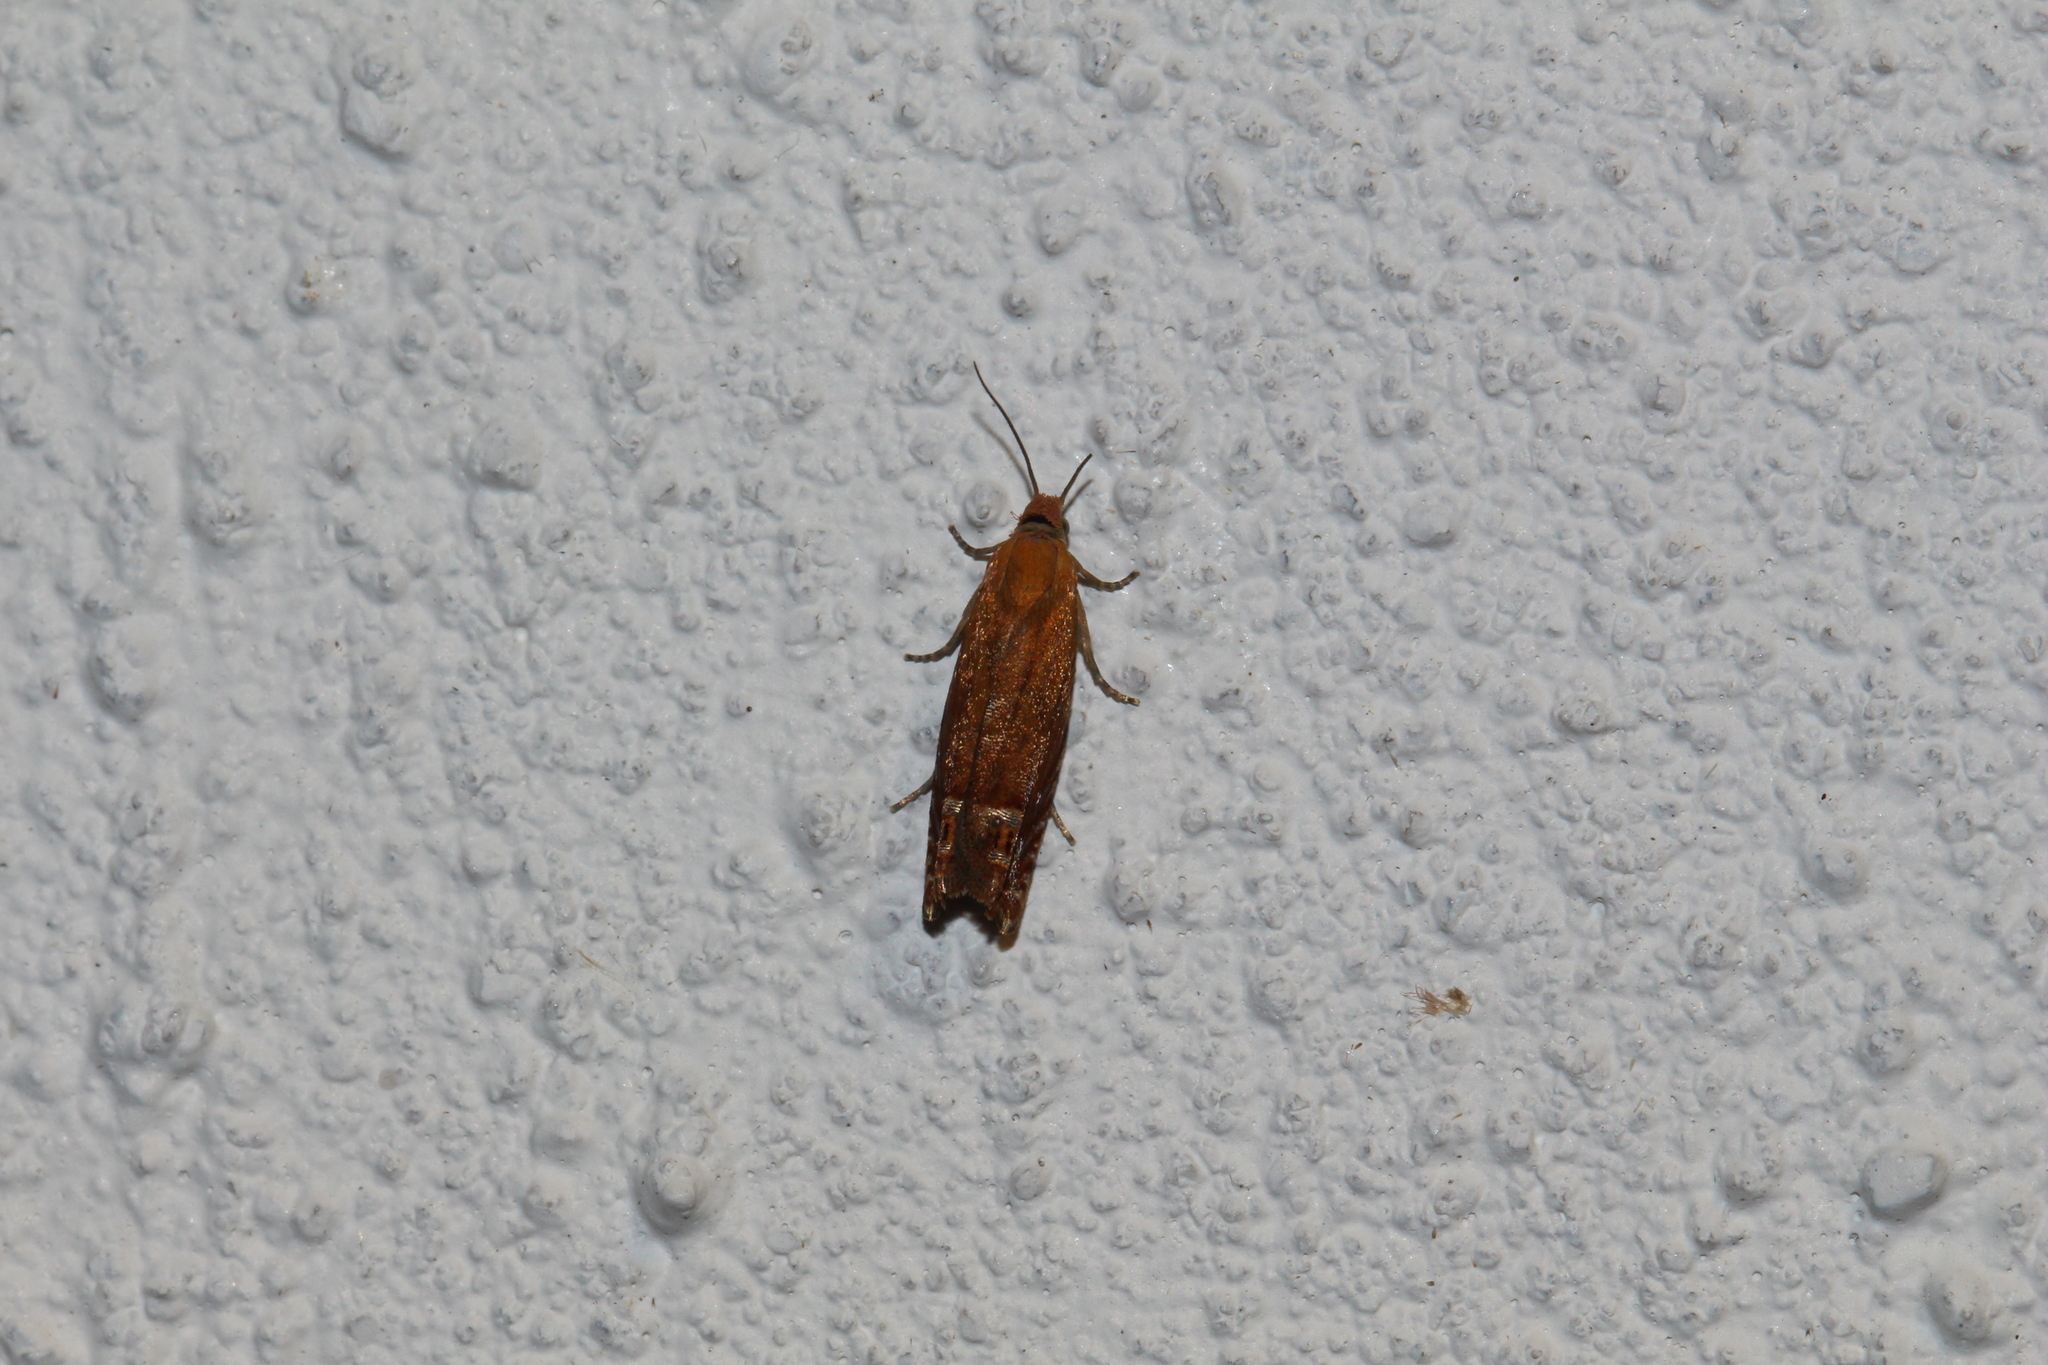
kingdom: Animalia
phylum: Arthropoda
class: Insecta
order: Lepidoptera
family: Tortricidae
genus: Lathronympha
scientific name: Lathronympha strigana
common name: Red piercer
